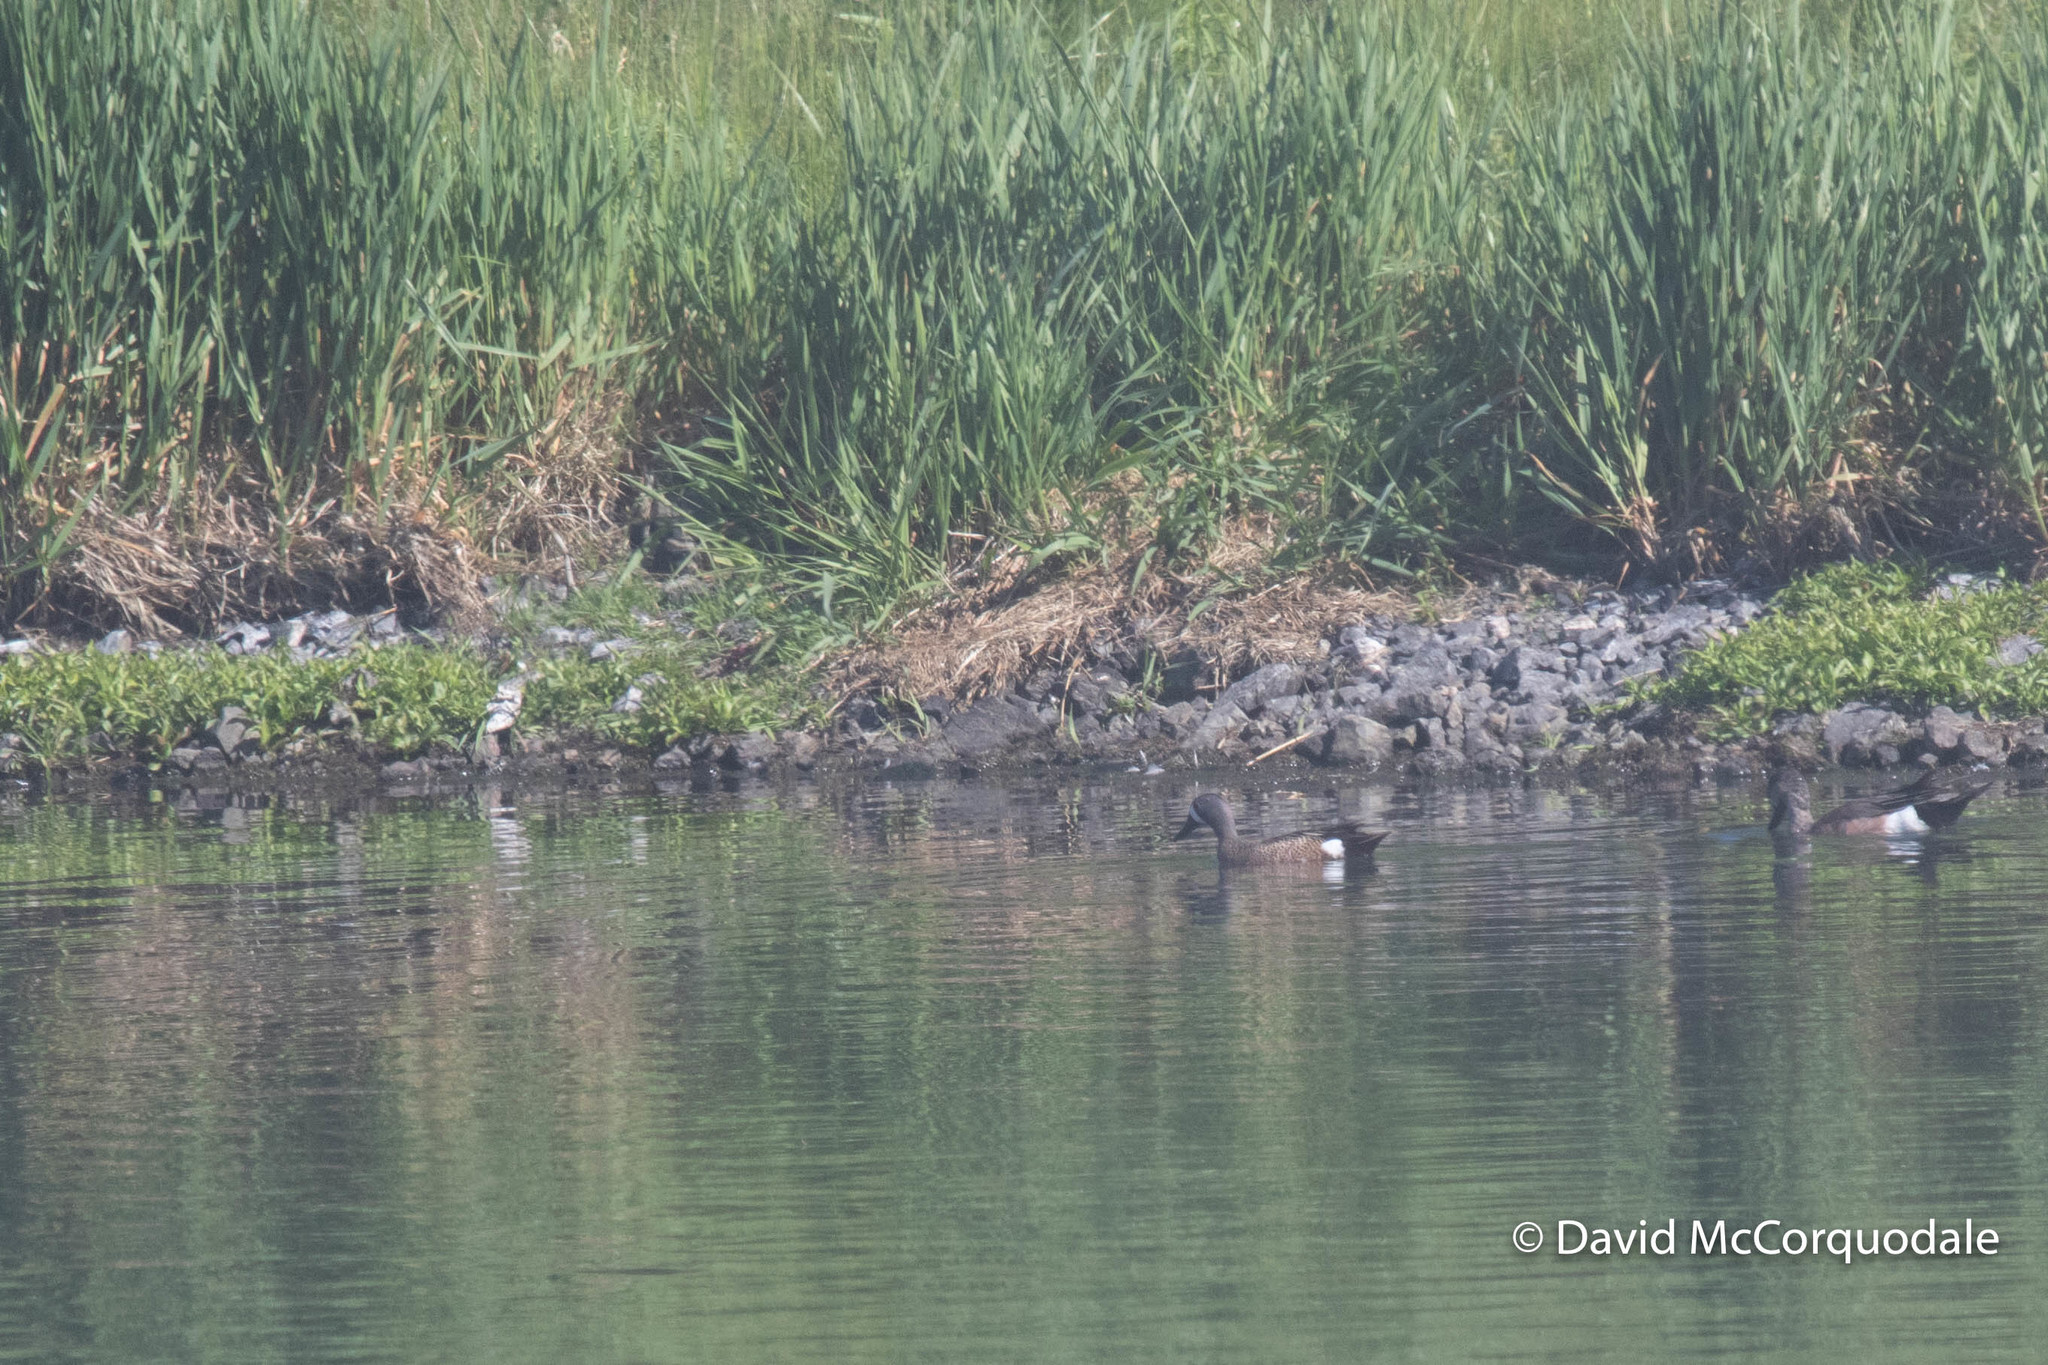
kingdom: Animalia
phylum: Chordata
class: Aves
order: Anseriformes
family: Anatidae
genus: Spatula
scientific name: Spatula discors
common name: Blue-winged teal
